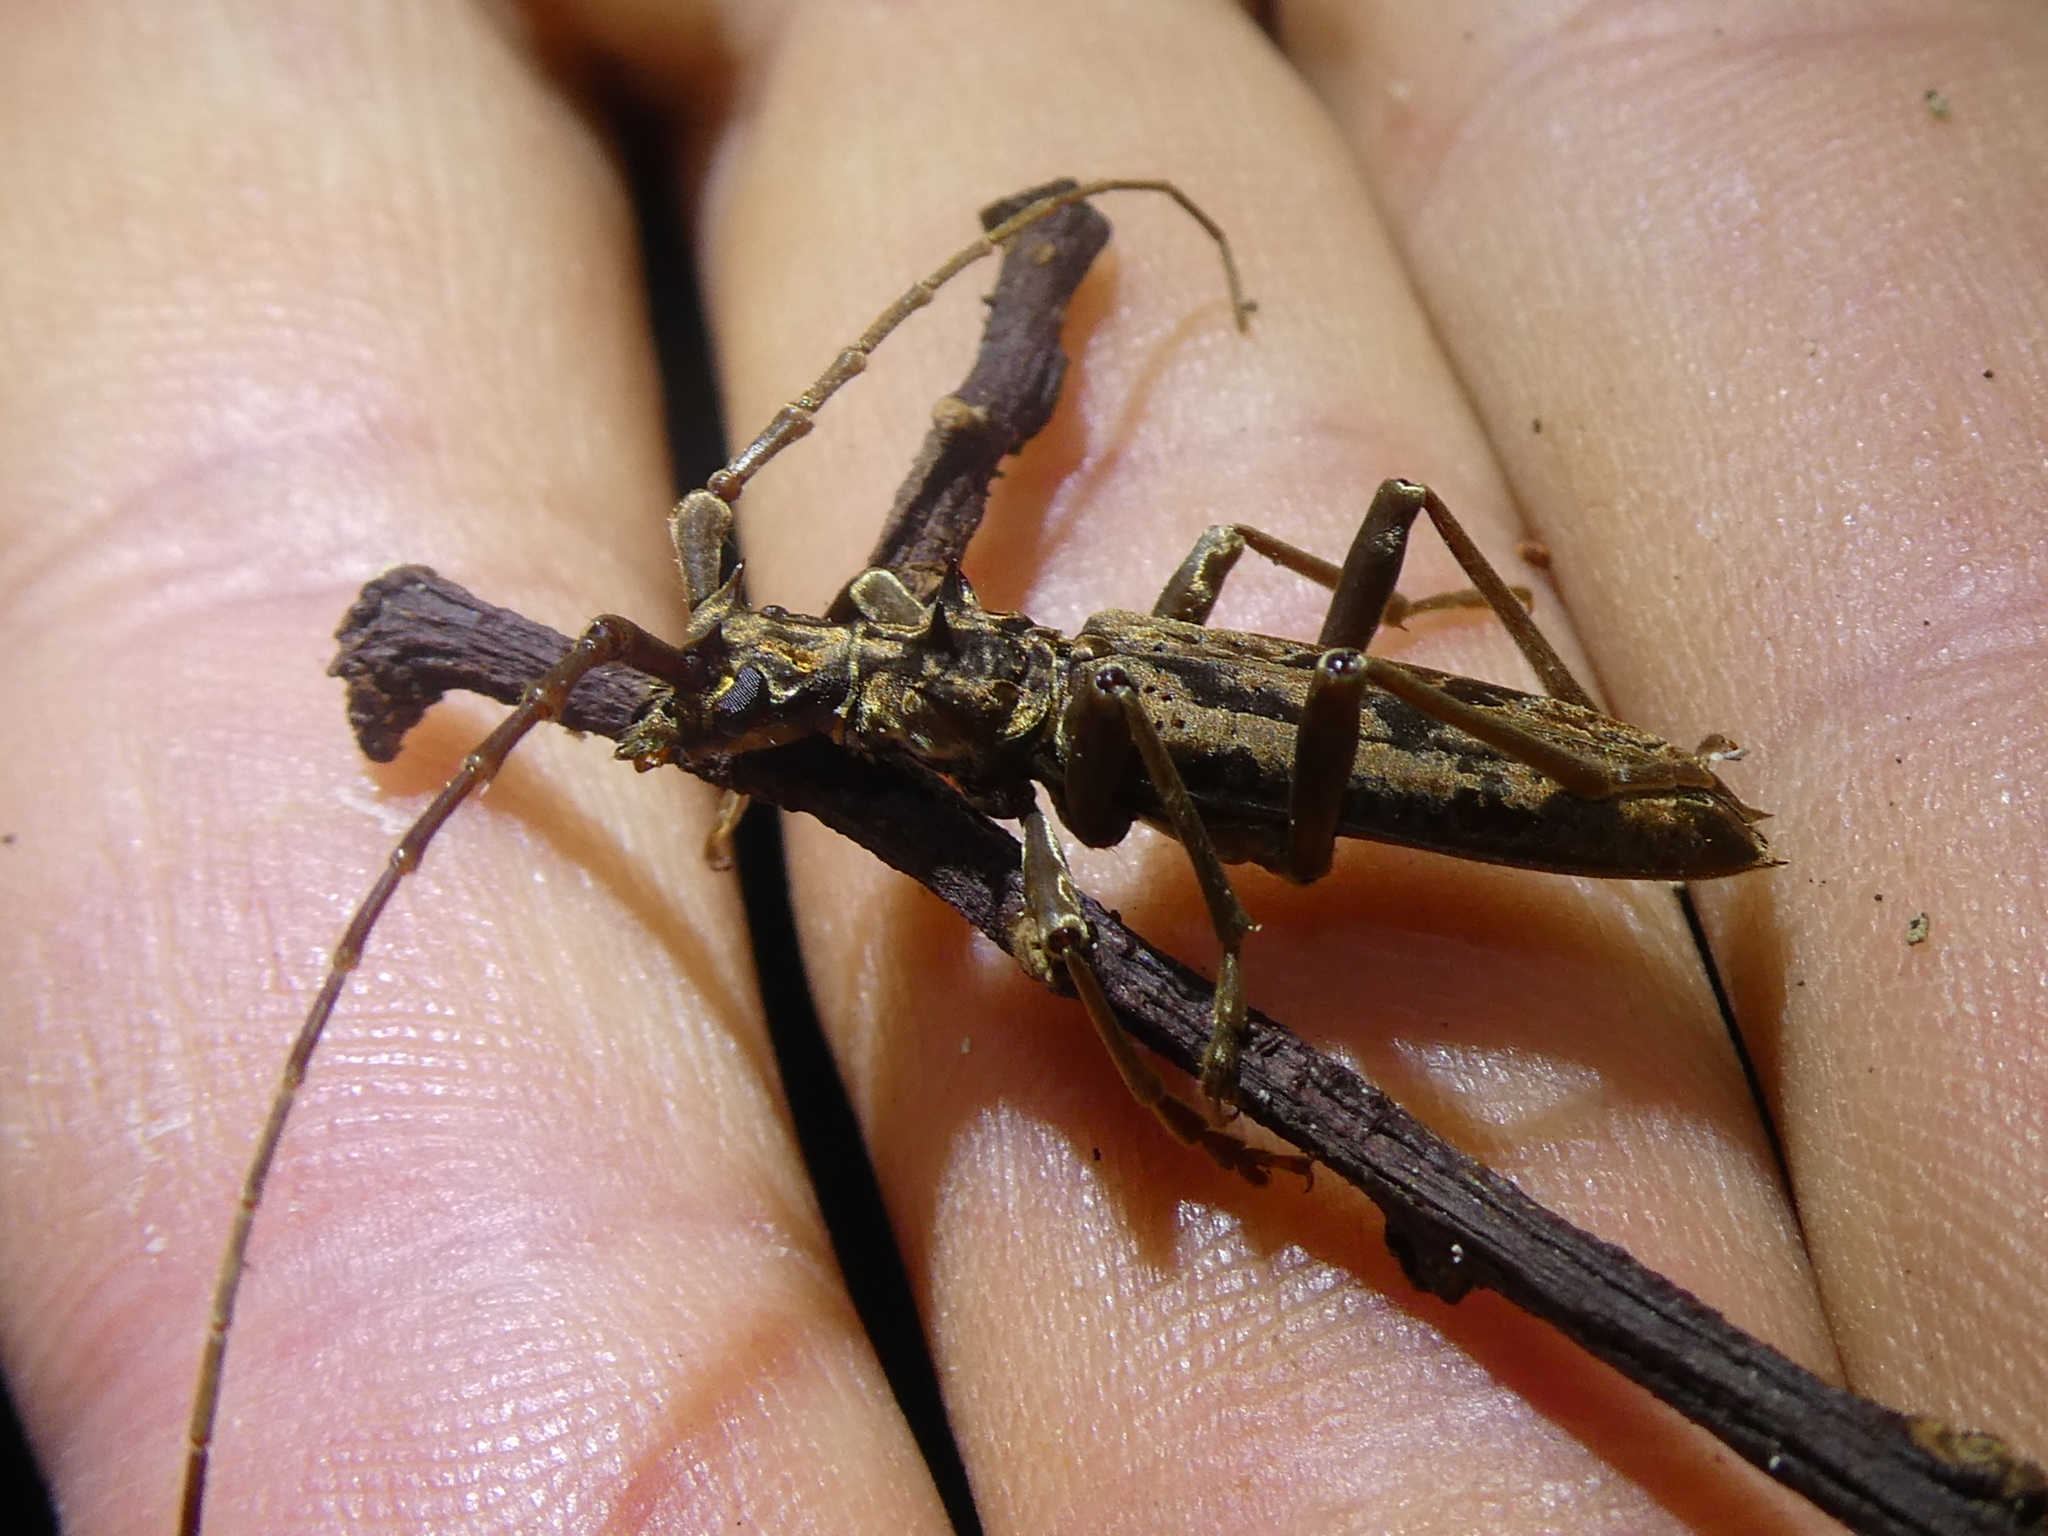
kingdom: Animalia
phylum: Arthropoda
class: Insecta
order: Coleoptera
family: Cerambycidae
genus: Blosyropus
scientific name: Blosyropus spinosus
